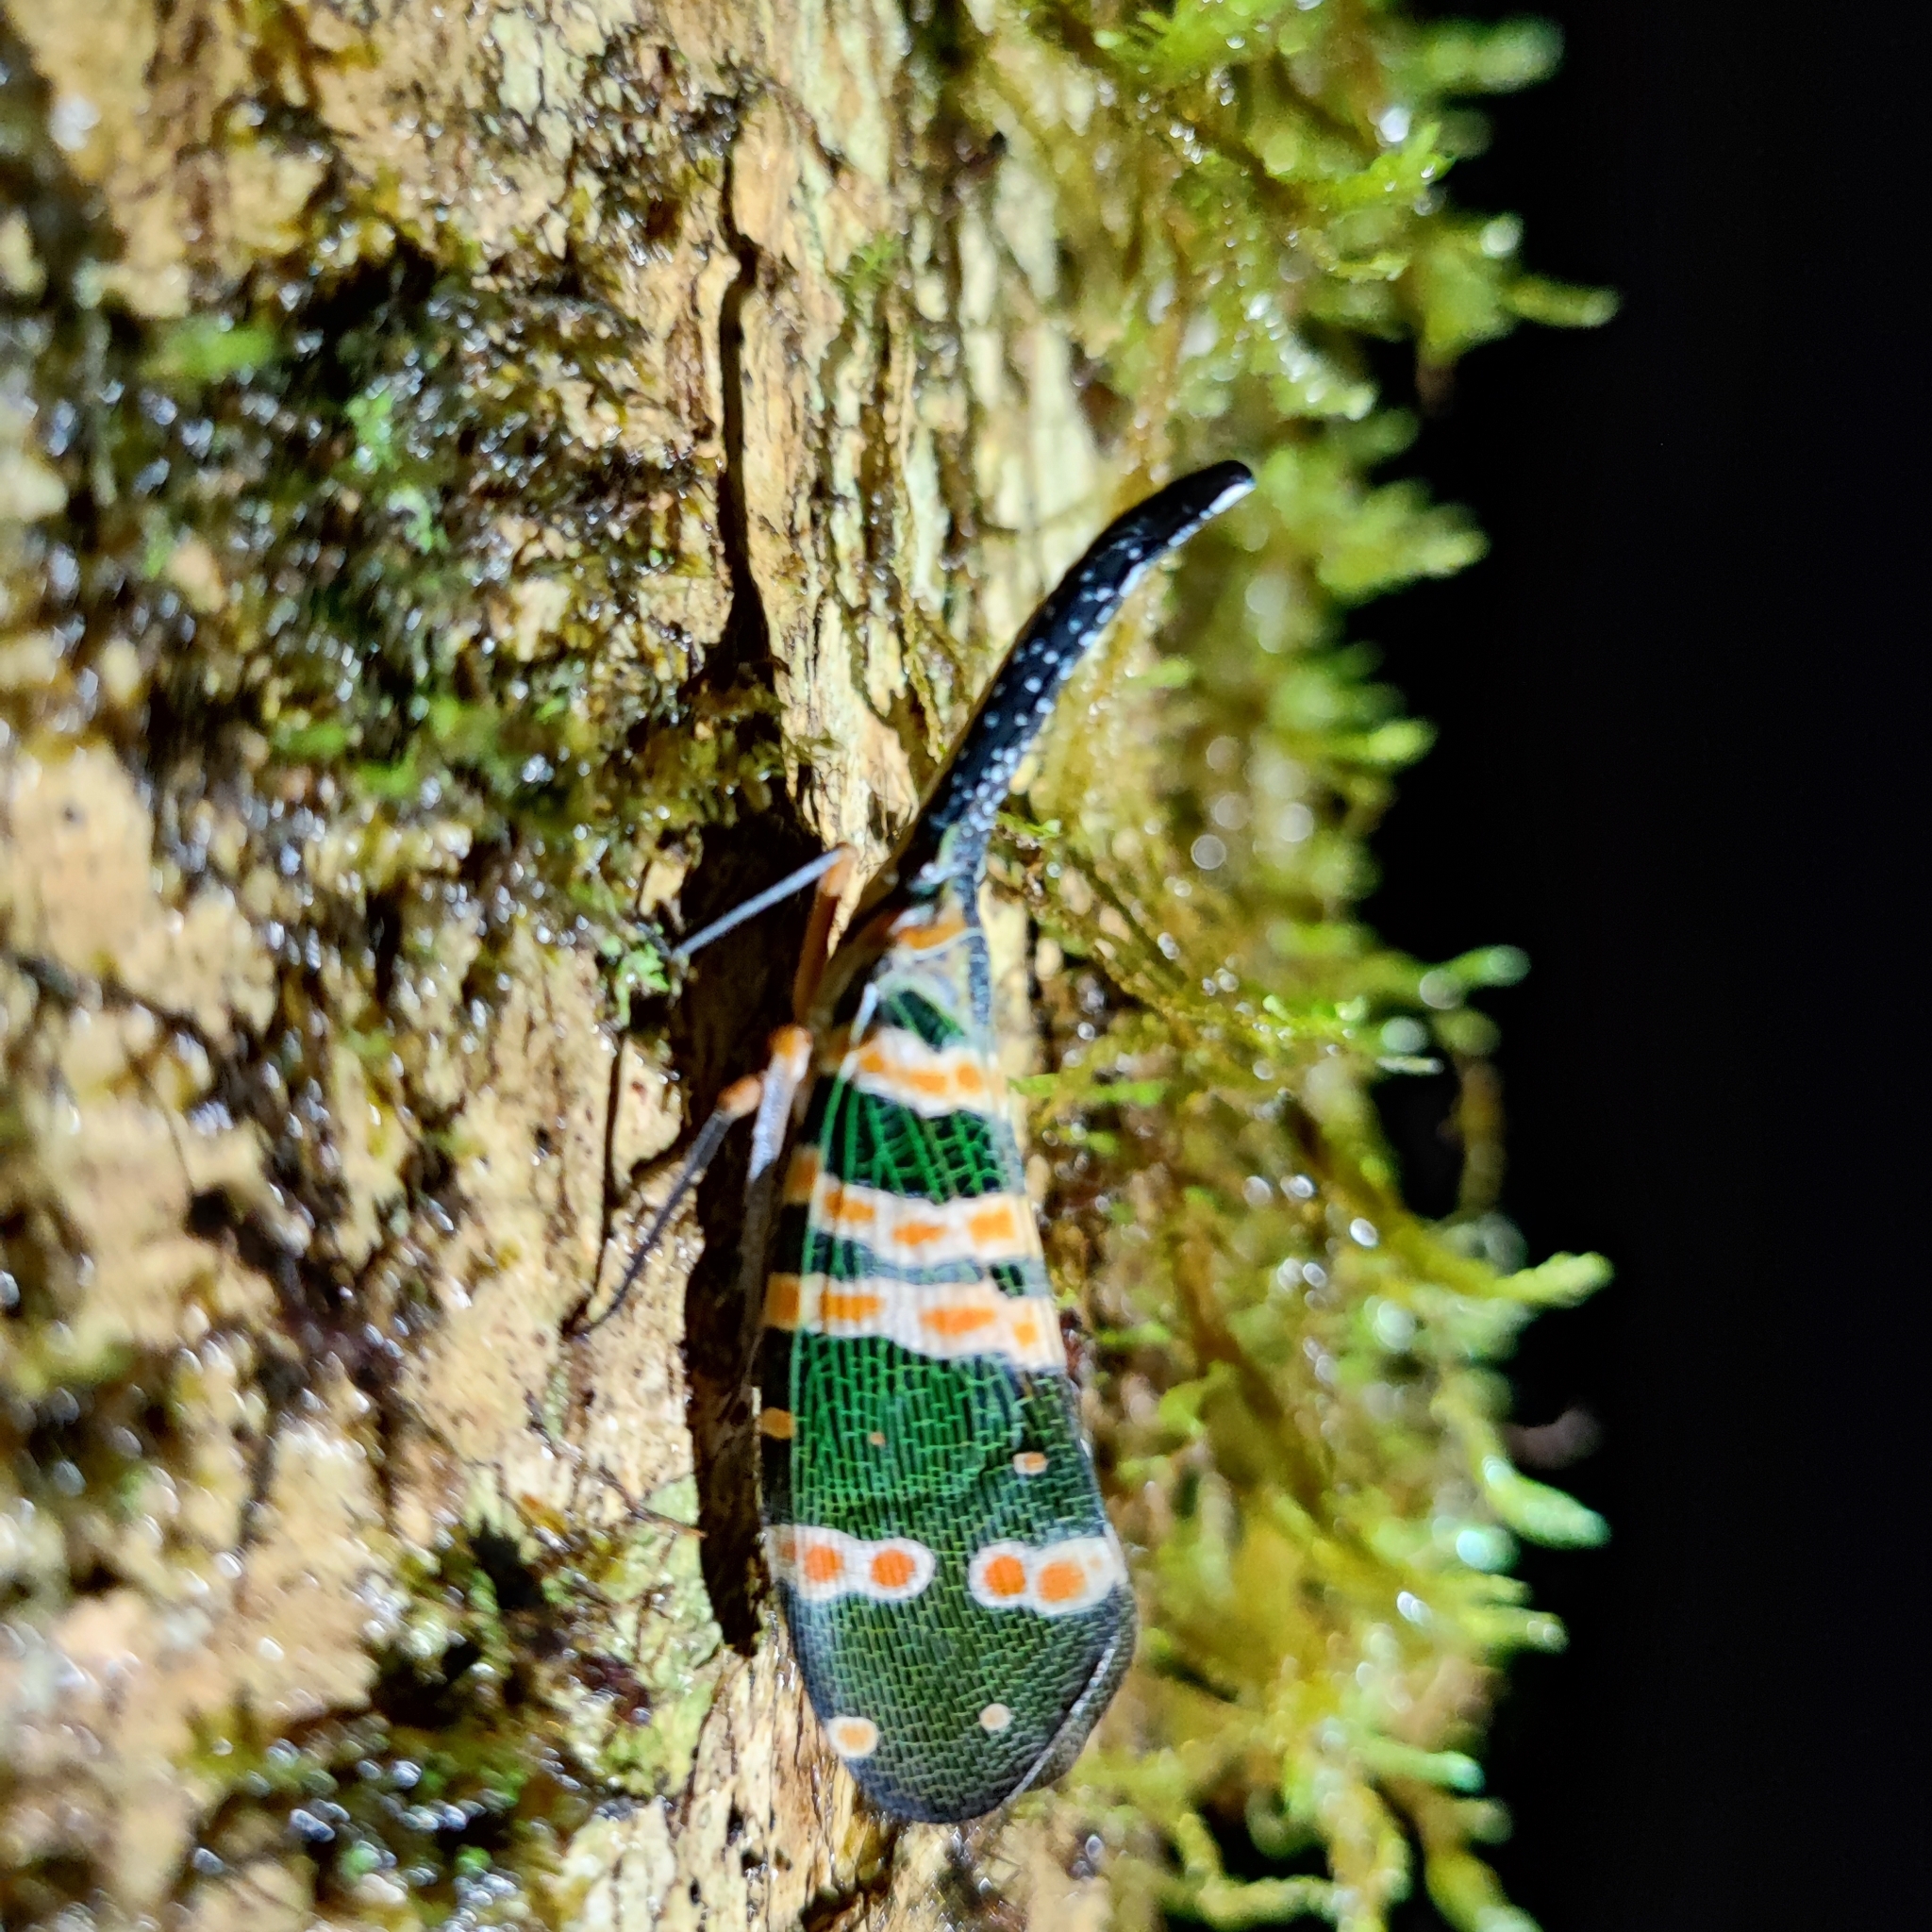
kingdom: Animalia
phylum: Arthropoda
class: Insecta
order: Hemiptera
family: Fulgoridae
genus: Pyrops
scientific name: Pyrops spinolae
